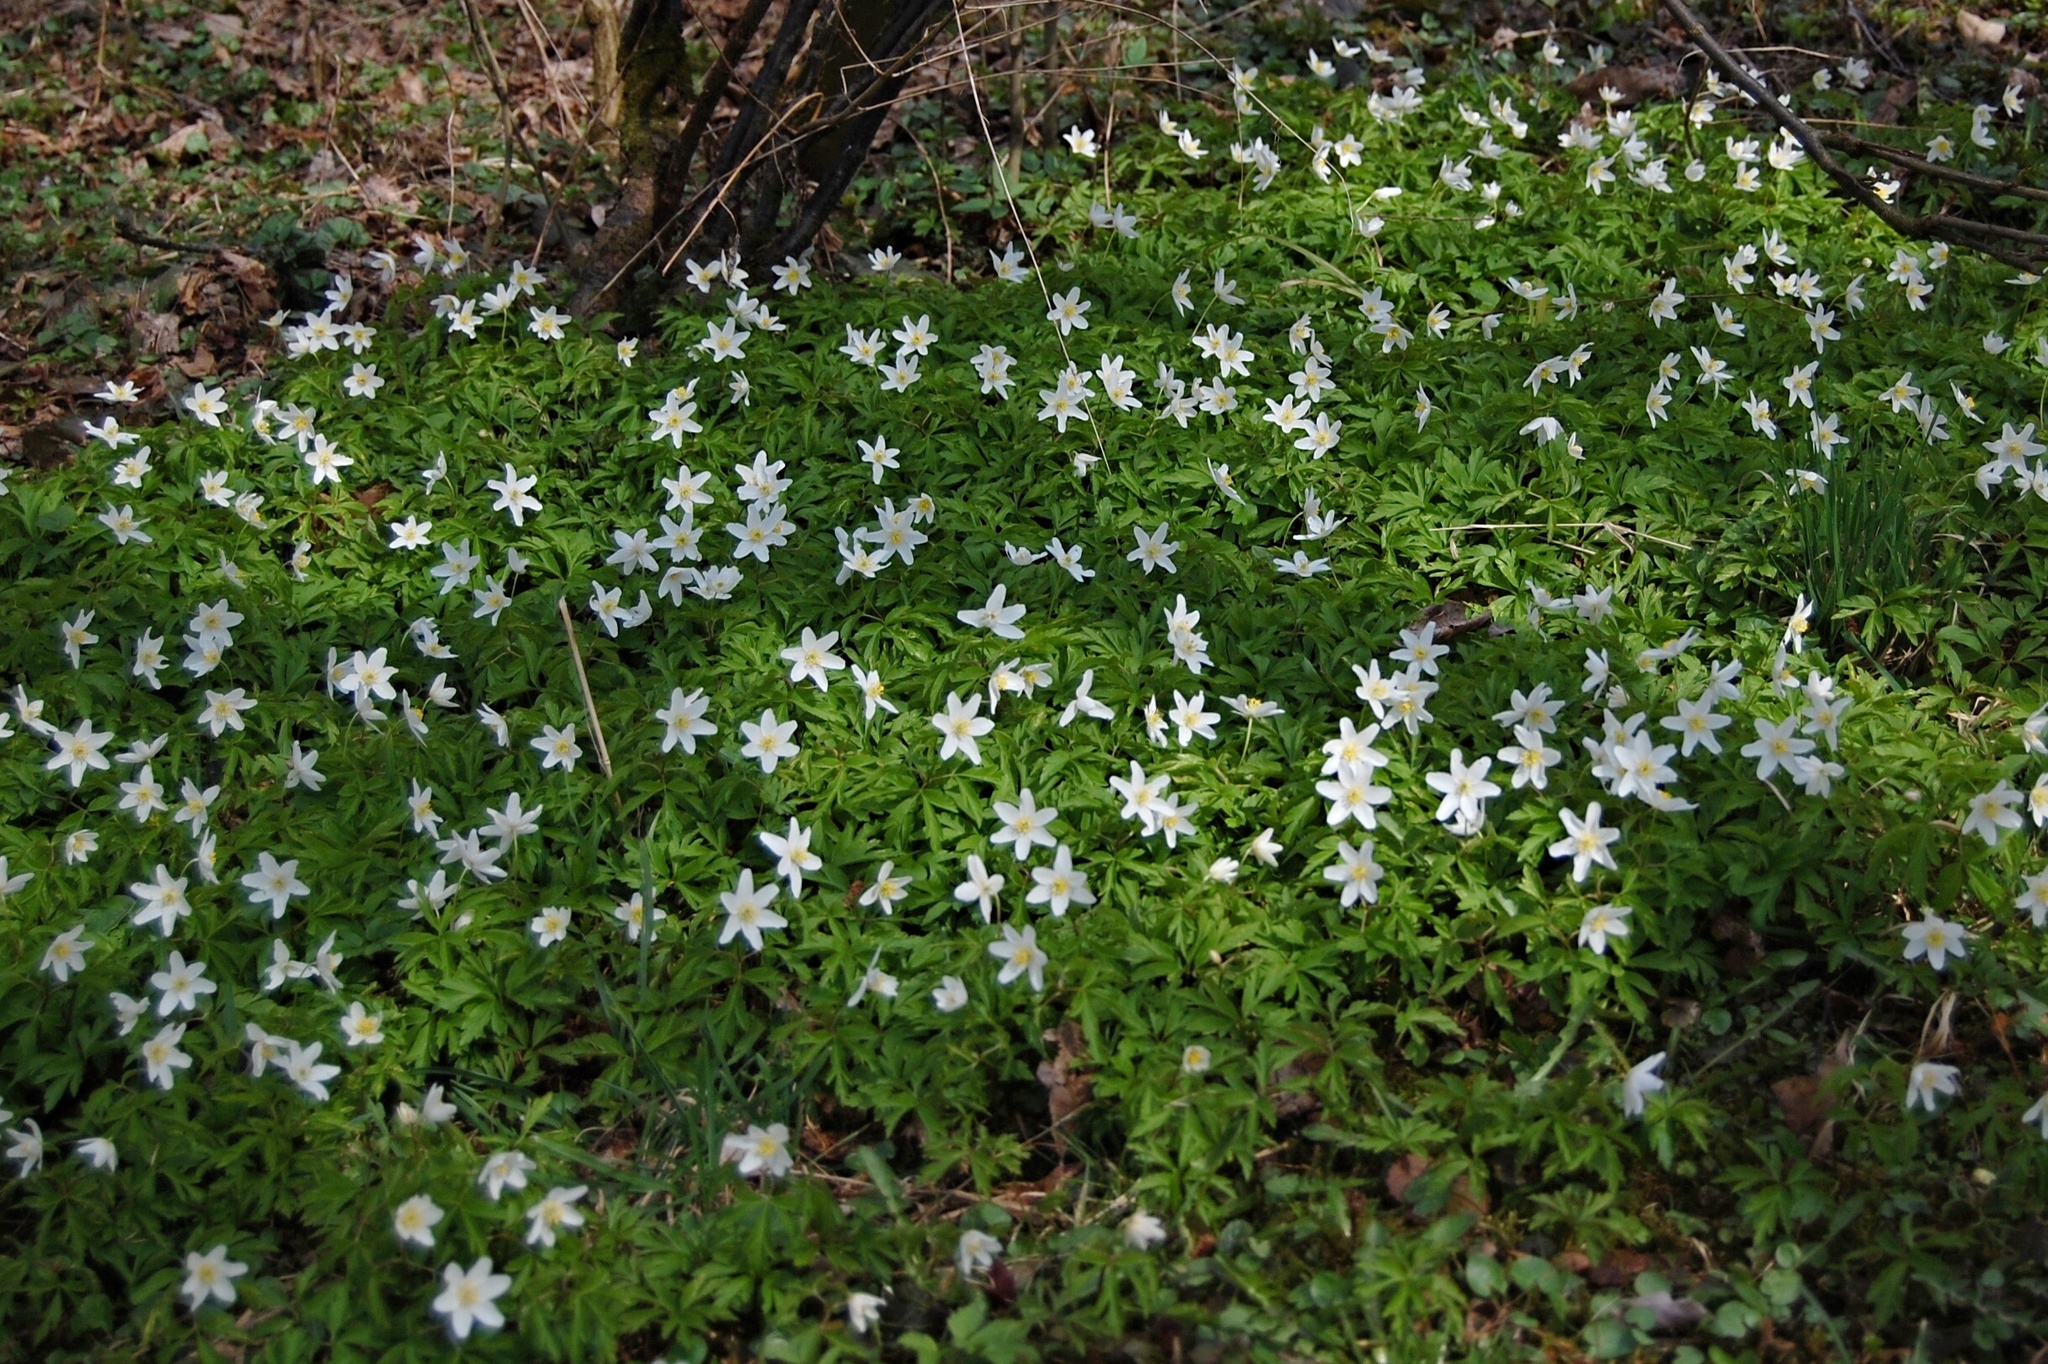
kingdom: Plantae
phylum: Tracheophyta
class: Magnoliopsida
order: Ranunculales
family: Ranunculaceae
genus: Anemone
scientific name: Anemone nemorosa
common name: Wood anemone
